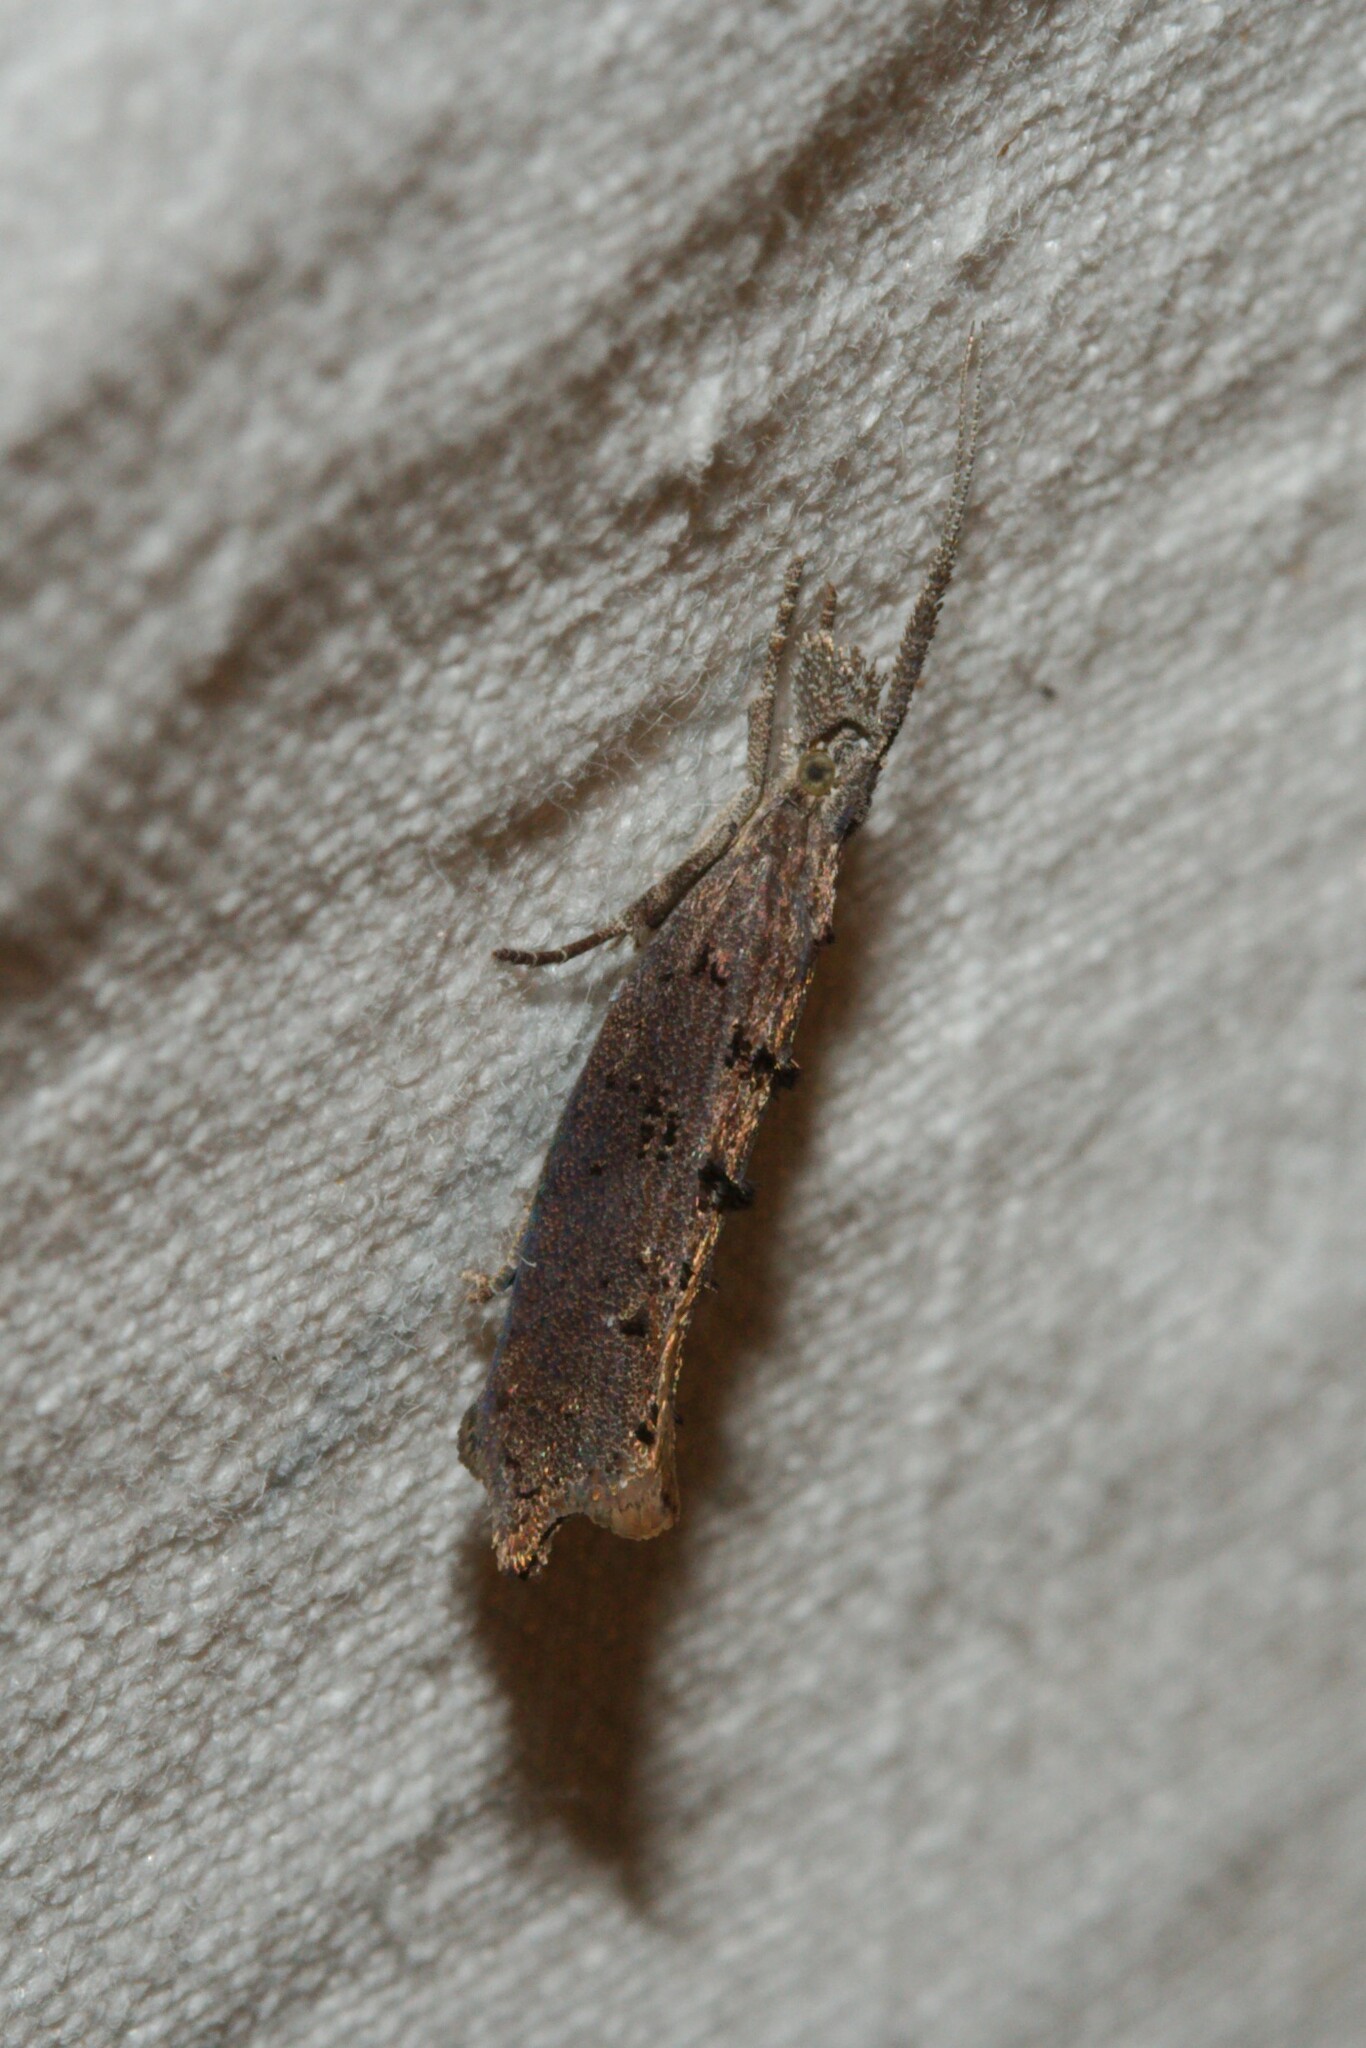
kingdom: Animalia
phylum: Arthropoda
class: Insecta
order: Lepidoptera
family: Ypsolophidae
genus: Ypsolopha
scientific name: Ypsolopha horridella
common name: Dark smudge
